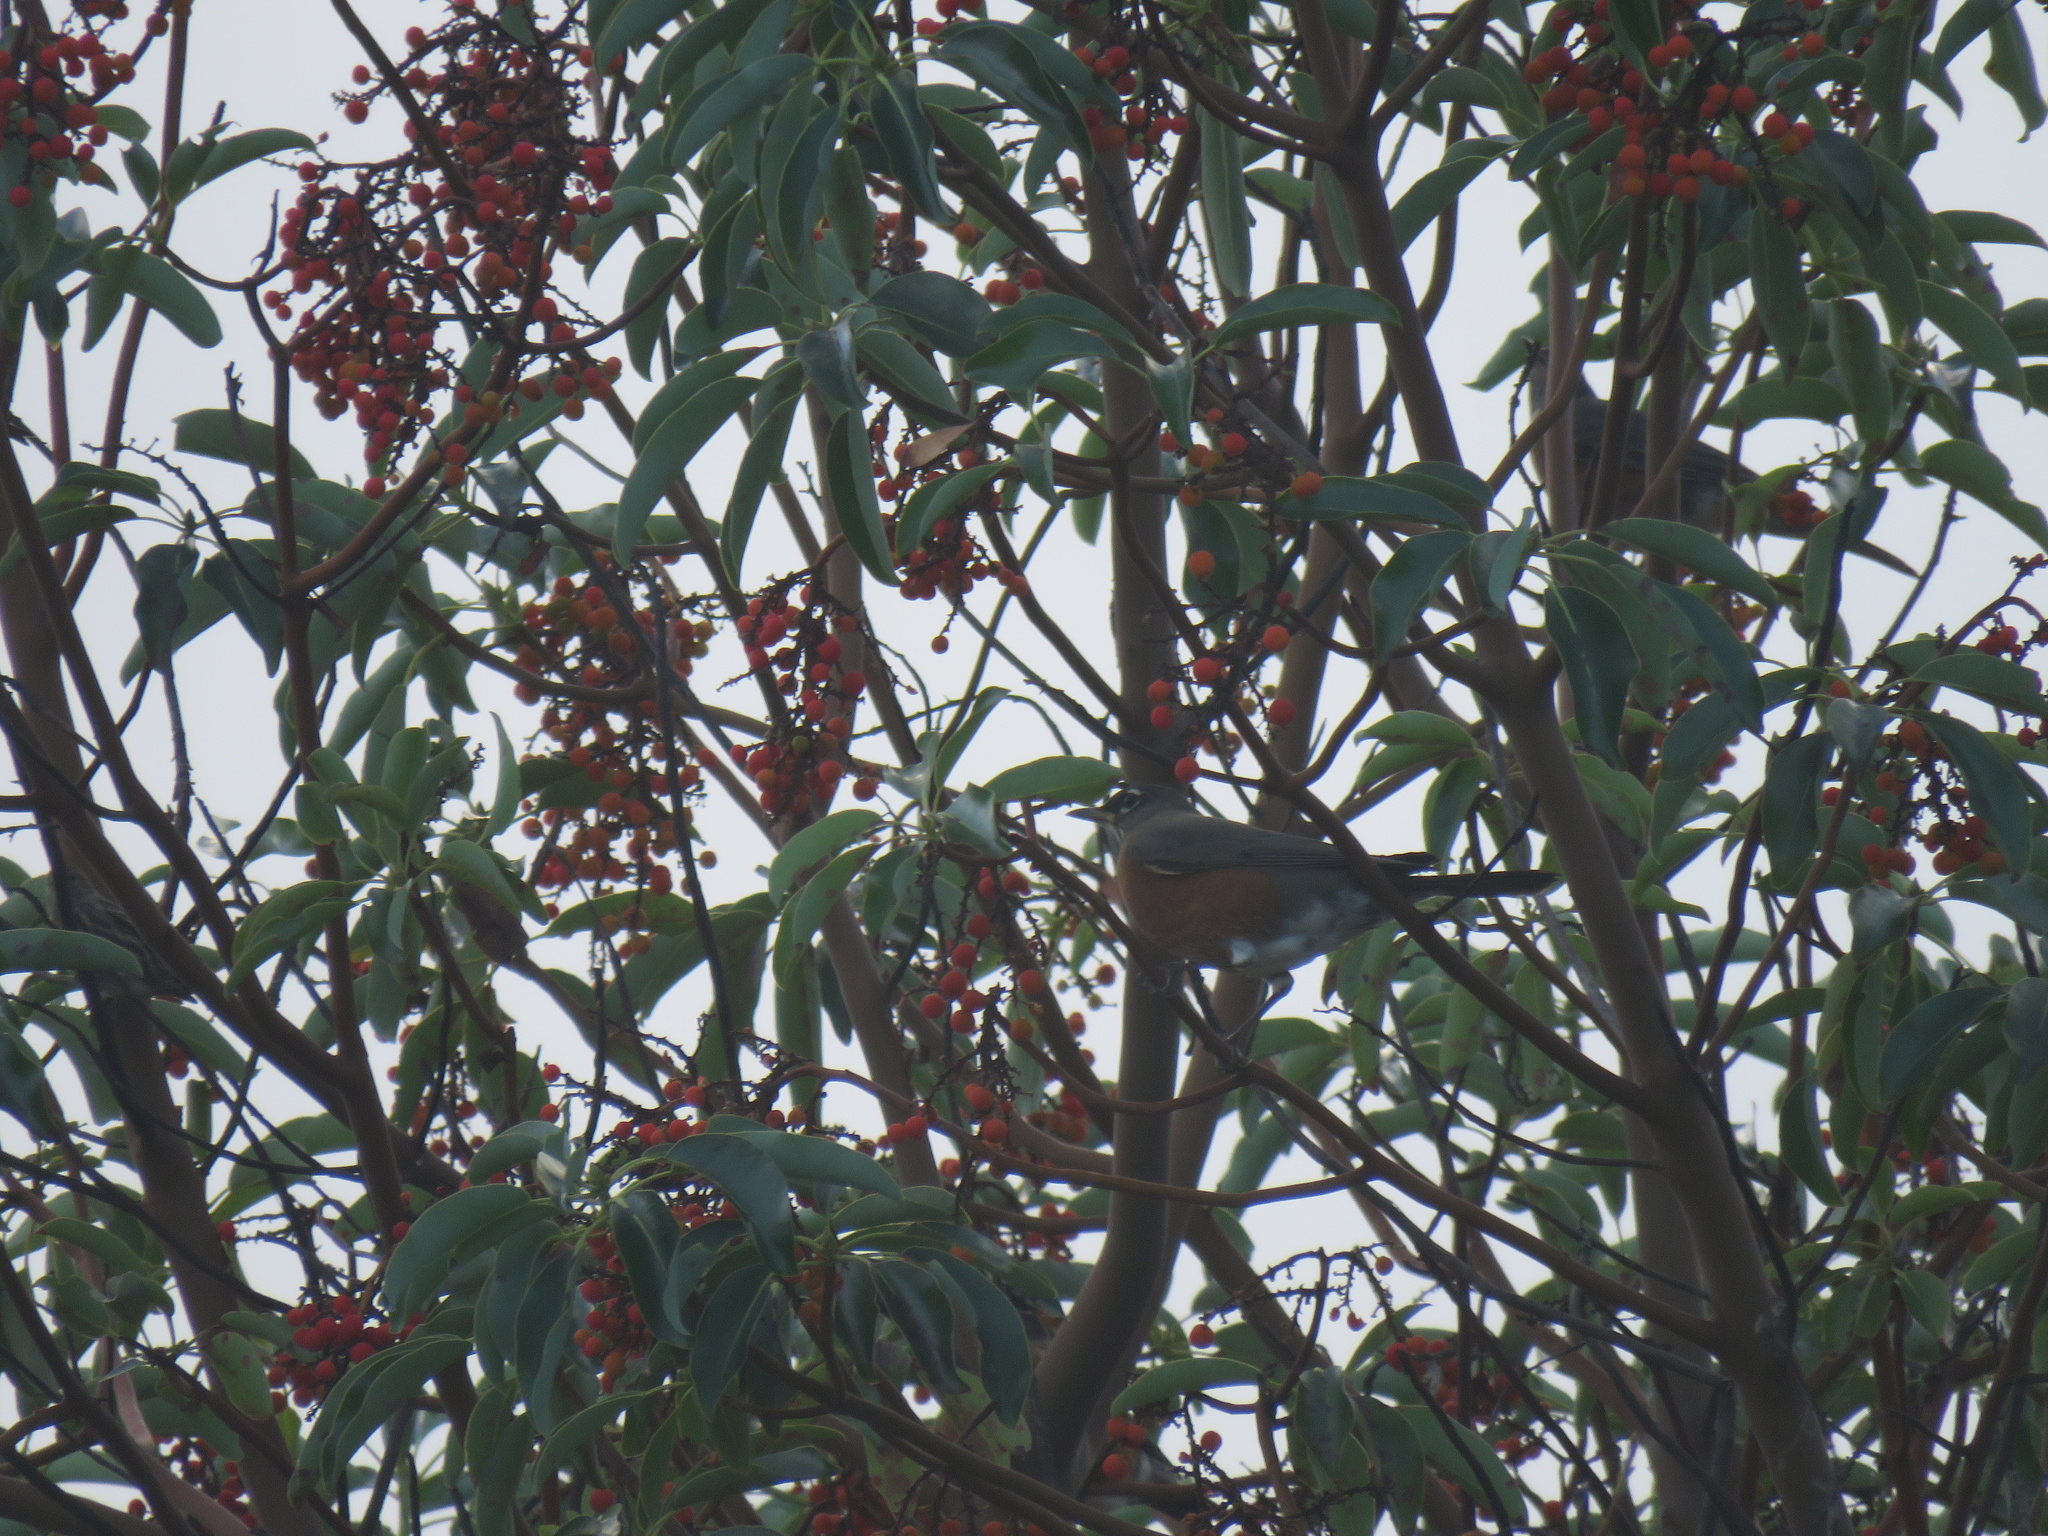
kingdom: Animalia
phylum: Chordata
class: Aves
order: Passeriformes
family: Turdidae
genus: Turdus
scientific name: Turdus migratorius
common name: American robin
